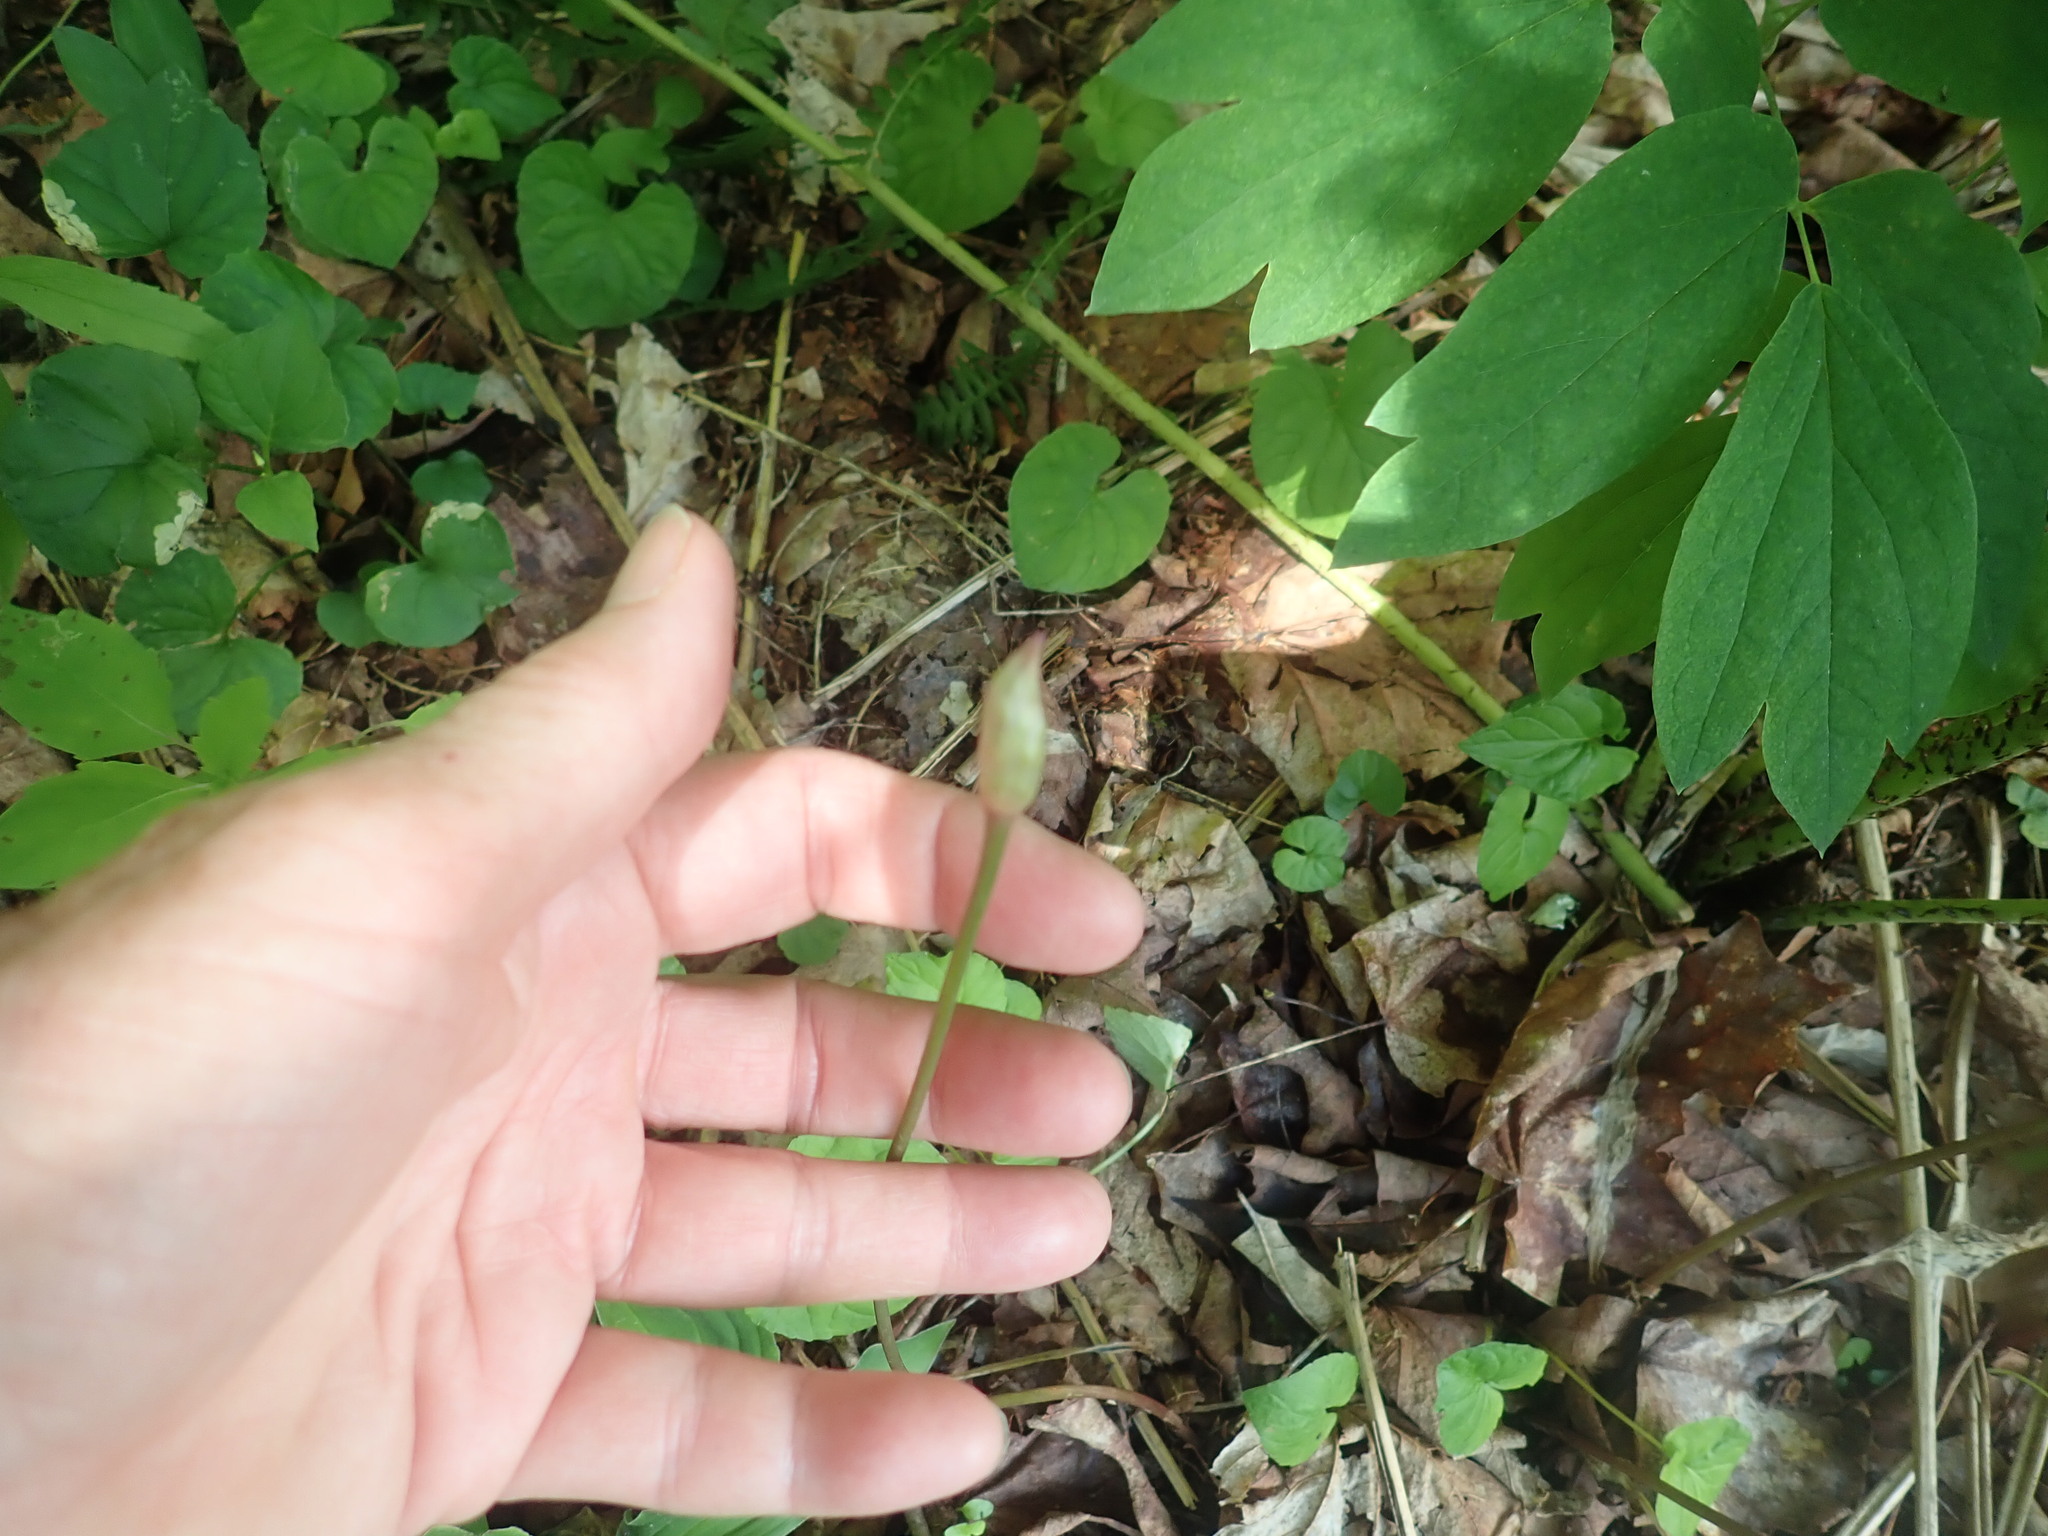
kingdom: Plantae
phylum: Tracheophyta
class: Liliopsida
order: Asparagales
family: Amaryllidaceae
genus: Allium
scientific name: Allium tricoccum
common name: Ramp
